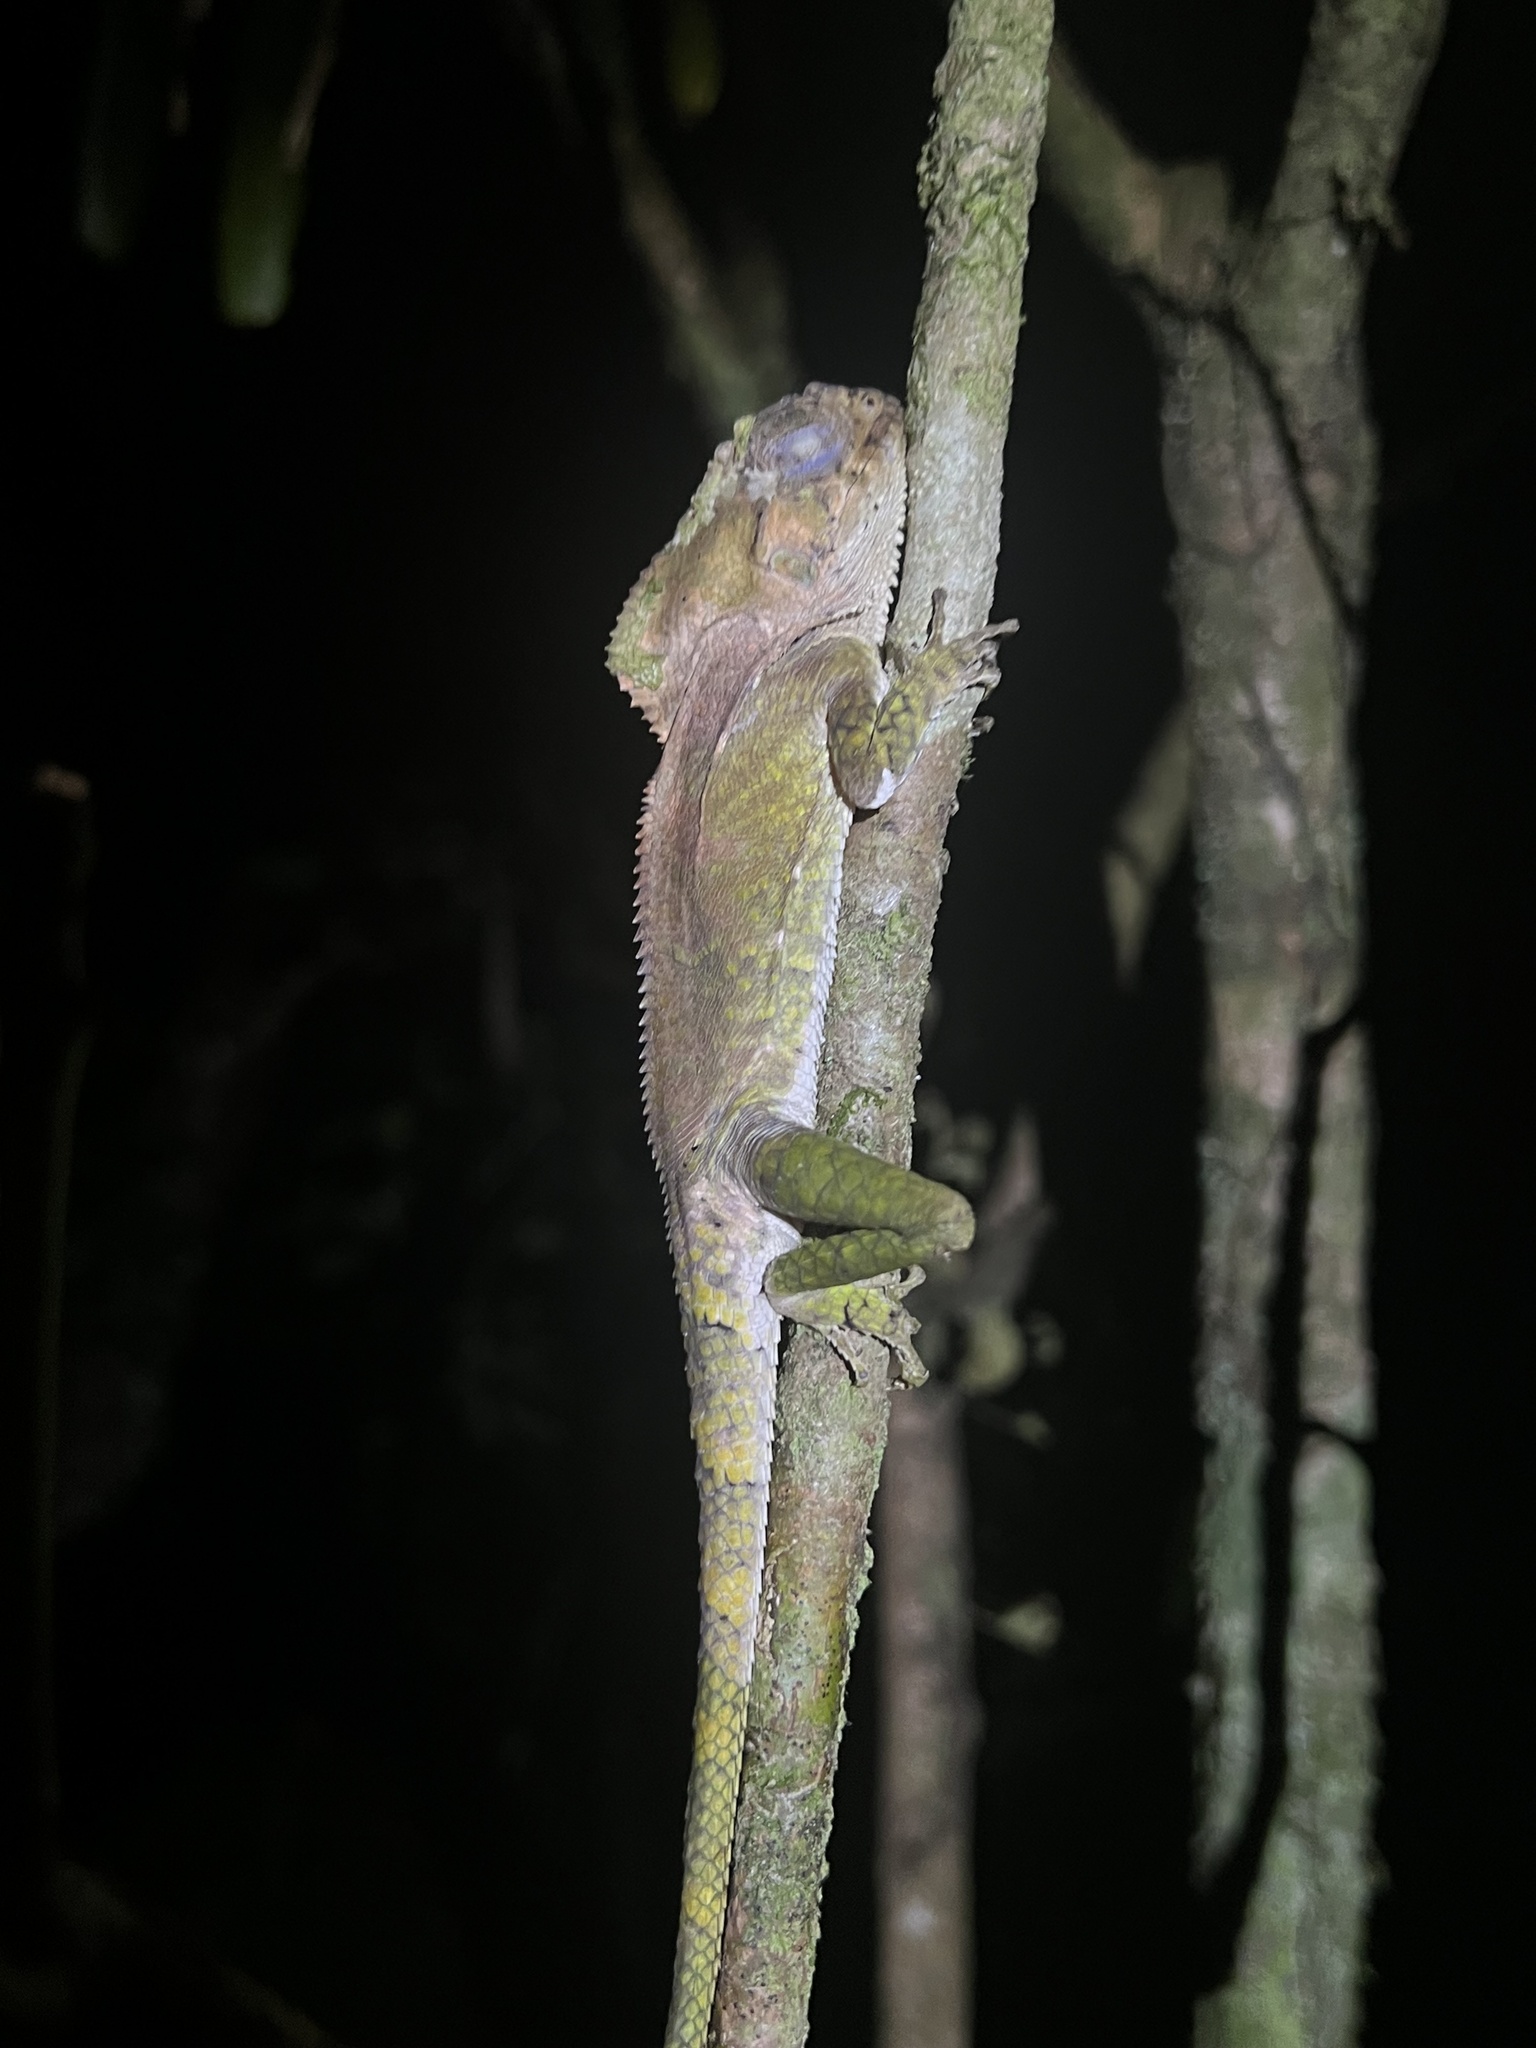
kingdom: Animalia
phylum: Chordata
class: Squamata
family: Corytophanidae
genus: Corytophanes
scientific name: Corytophanes cristatus
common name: Smooth helmeted iguana
